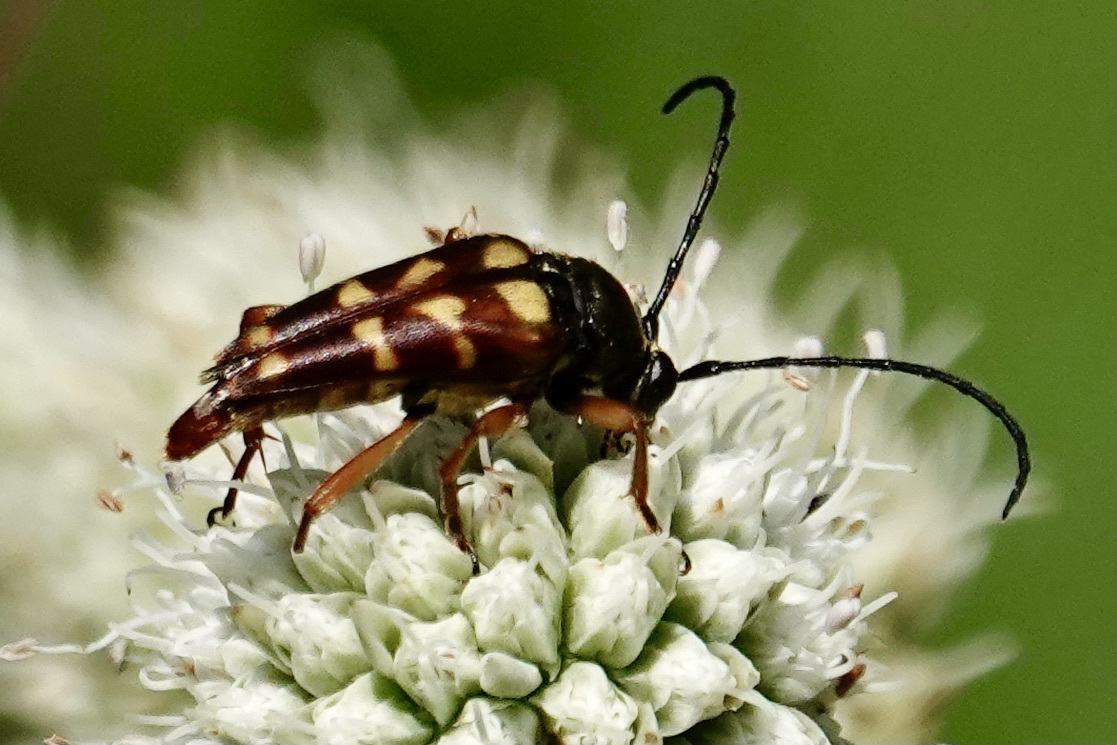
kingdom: Animalia
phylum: Arthropoda
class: Insecta
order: Coleoptera
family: Cerambycidae
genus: Typocerus
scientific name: Typocerus velutinus
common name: Banded longhorn beetle
